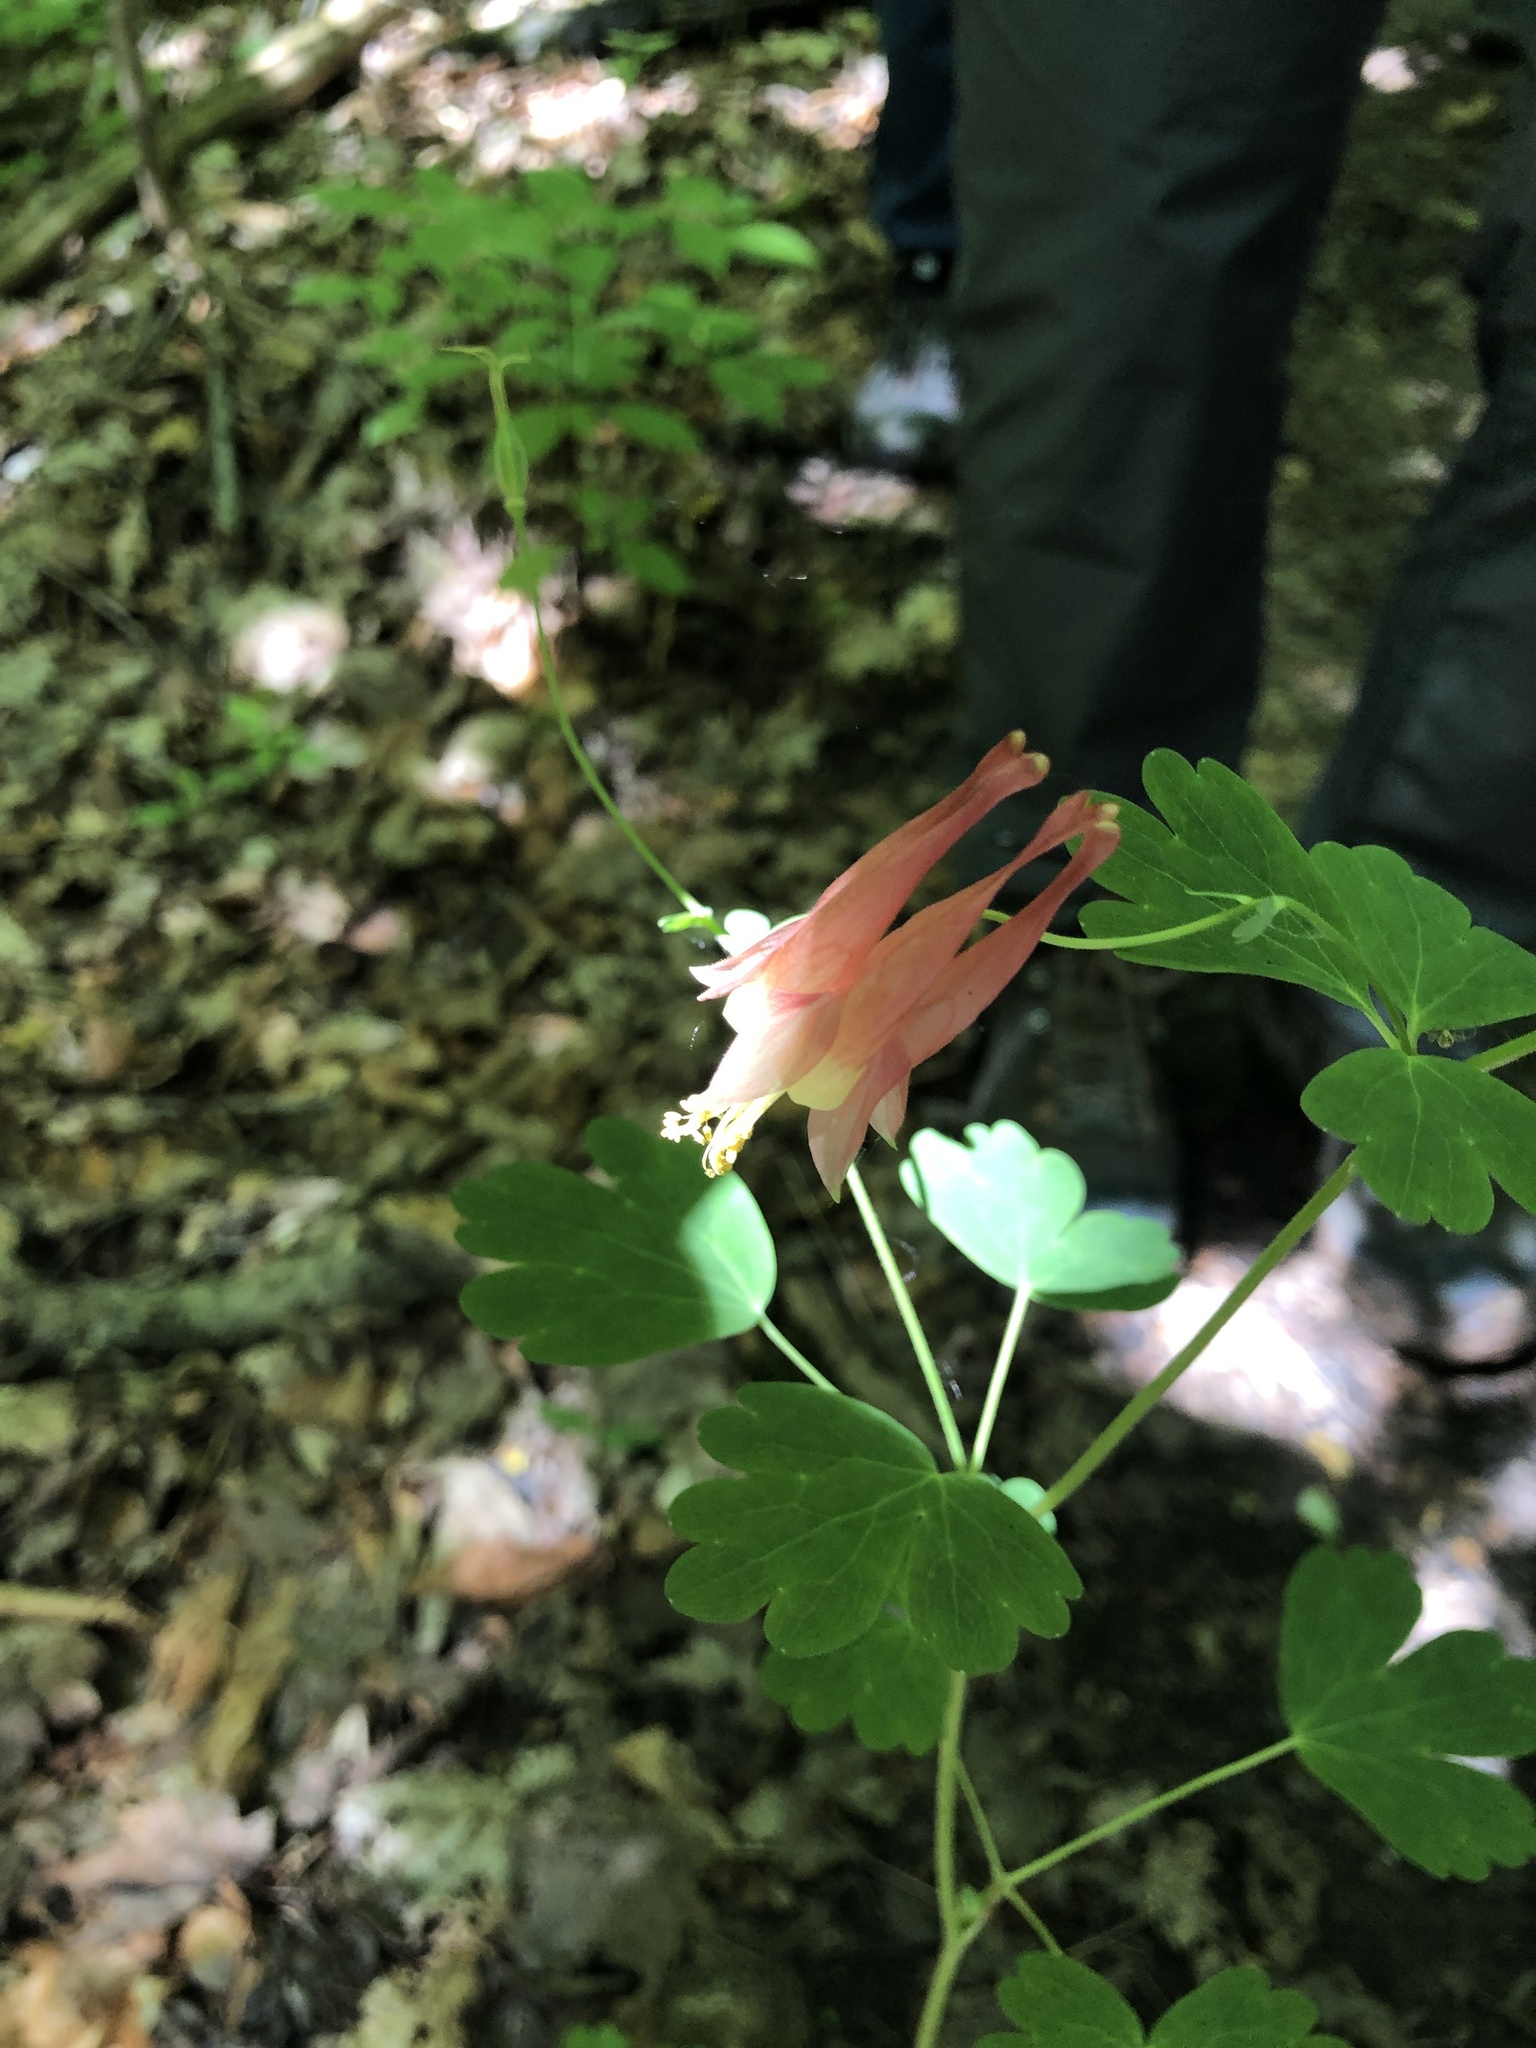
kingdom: Plantae
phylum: Tracheophyta
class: Magnoliopsida
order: Ranunculales
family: Ranunculaceae
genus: Aquilegia
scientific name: Aquilegia canadensis
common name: American columbine
